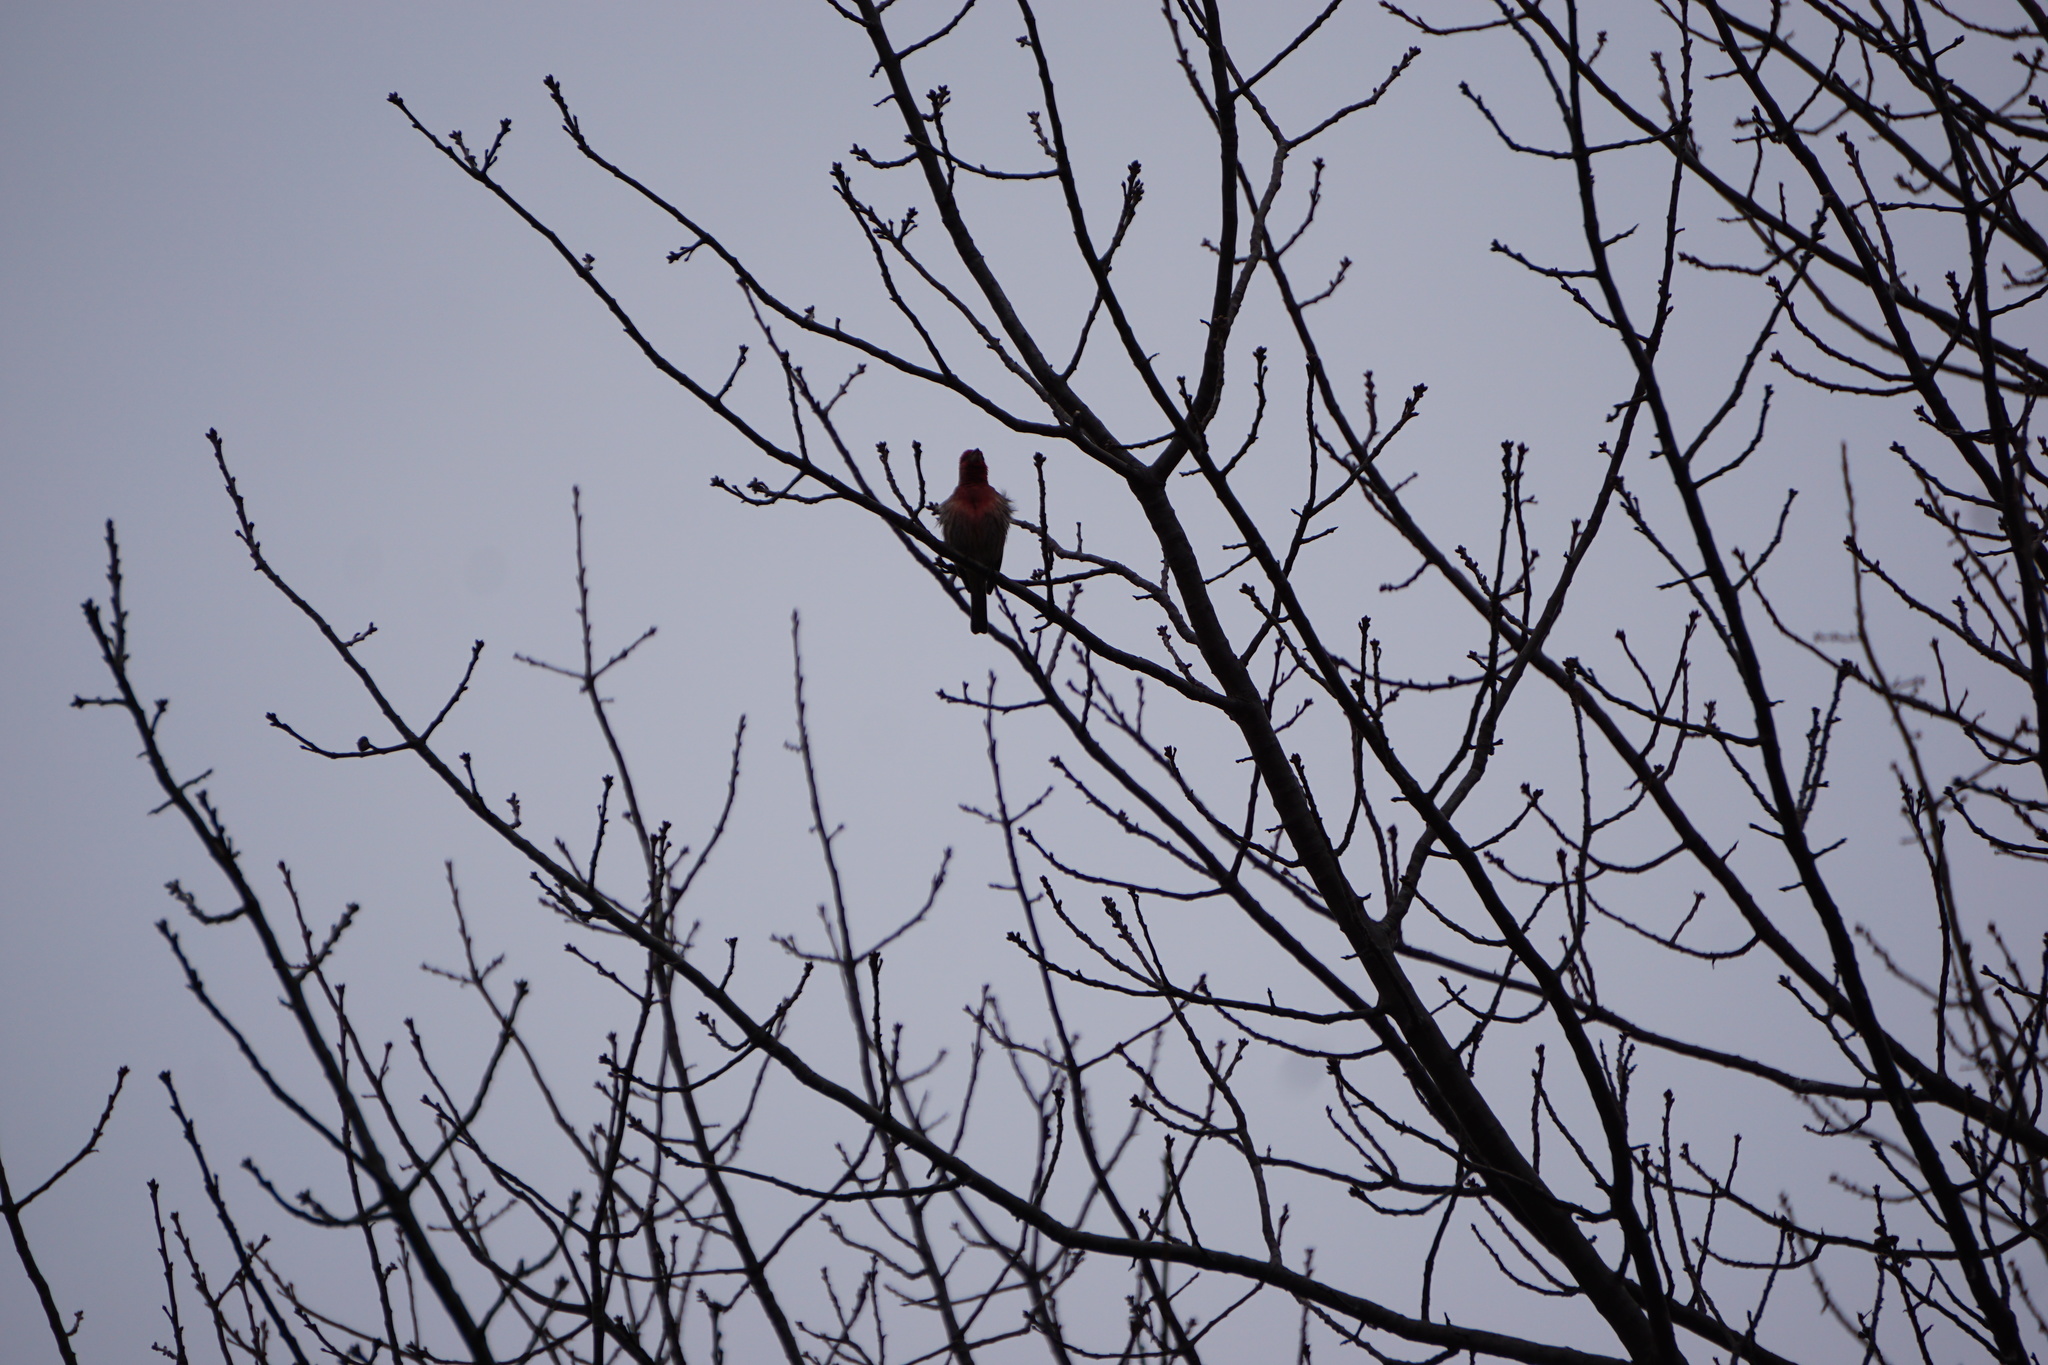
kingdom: Animalia
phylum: Chordata
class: Aves
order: Passeriformes
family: Fringillidae
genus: Haemorhous
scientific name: Haemorhous mexicanus
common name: House finch
